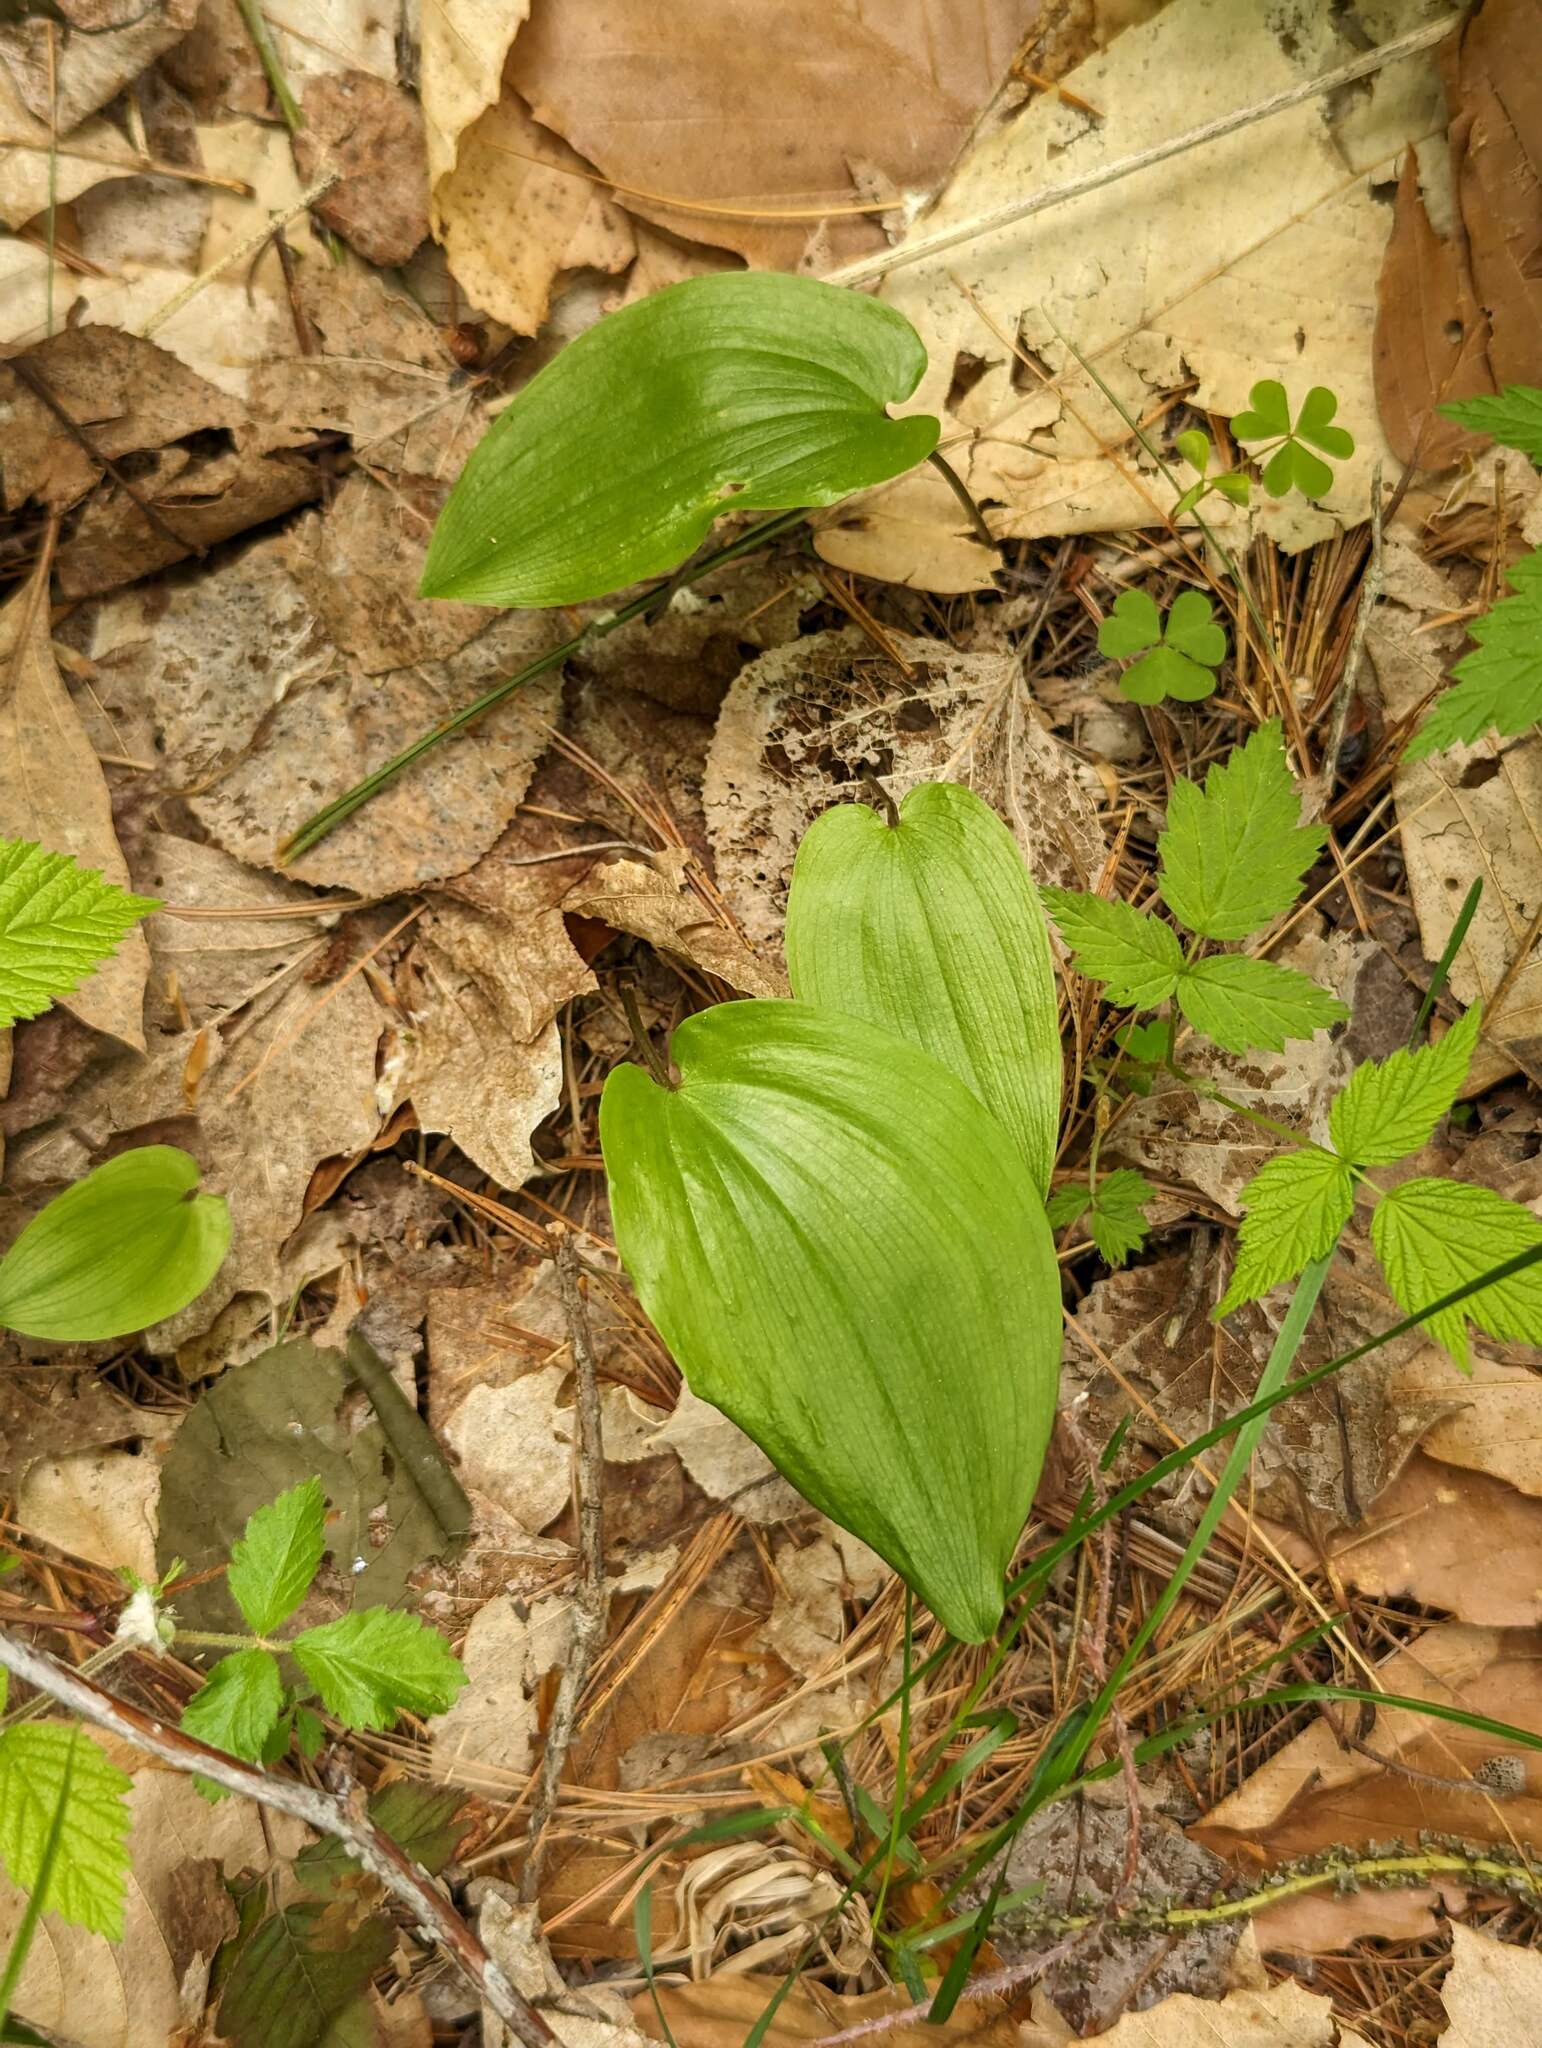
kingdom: Plantae
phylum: Tracheophyta
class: Liliopsida
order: Asparagales
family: Asparagaceae
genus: Maianthemum
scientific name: Maianthemum canadense
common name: False lily-of-the-valley
